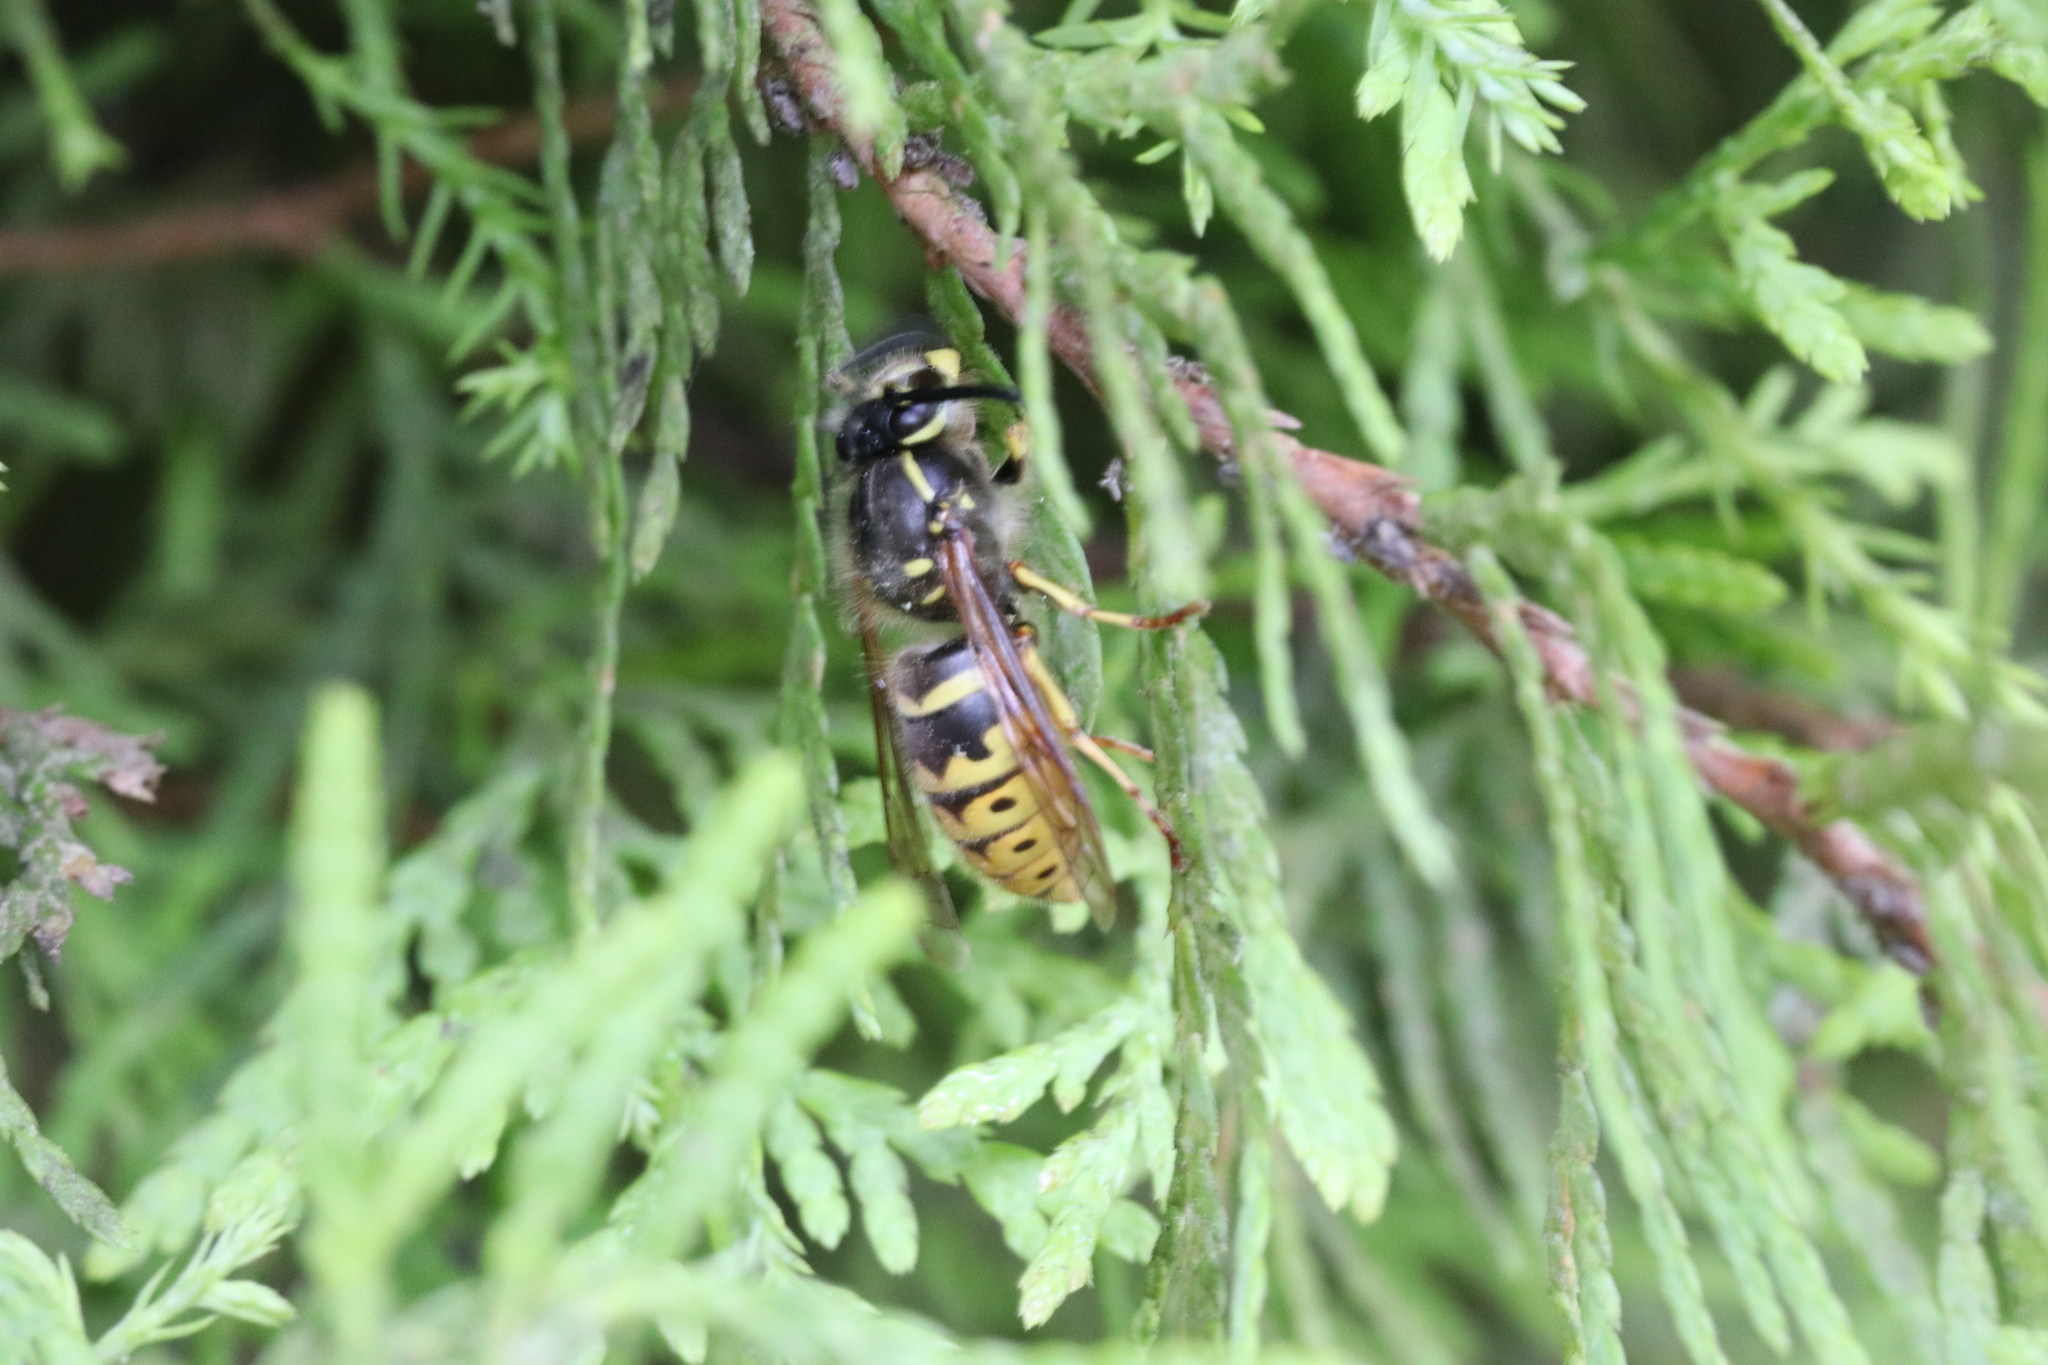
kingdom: Animalia
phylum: Arthropoda
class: Insecta
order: Hymenoptera
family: Vespidae
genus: Vespula
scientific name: Vespula vulgaris
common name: Common wasp
